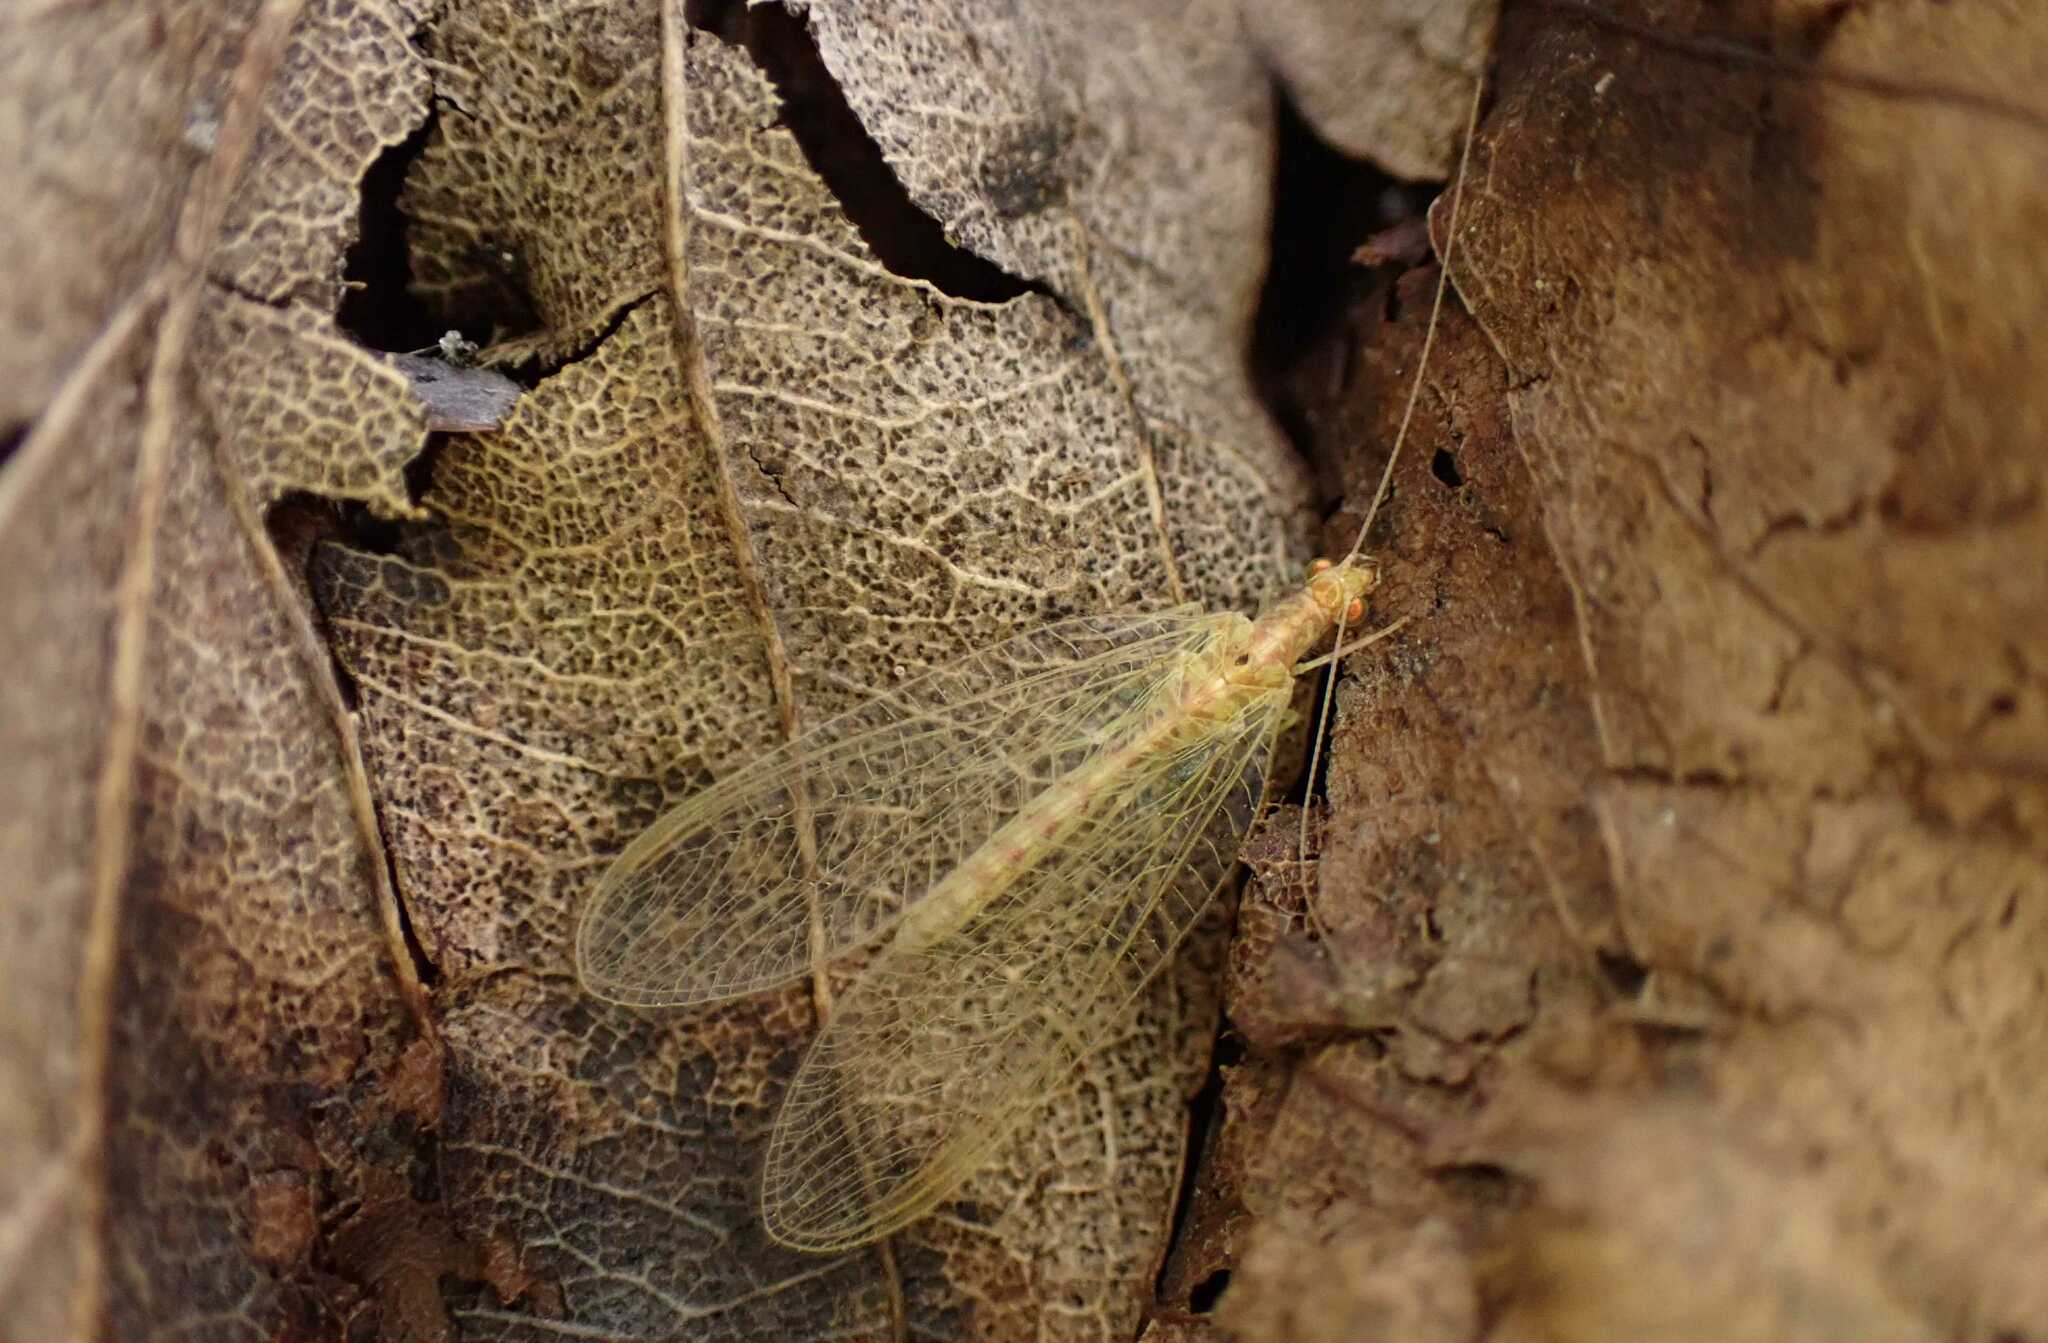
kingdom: Animalia
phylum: Arthropoda
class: Insecta
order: Neuroptera
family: Chrysopidae
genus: Chrysoperla
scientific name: Chrysoperla
